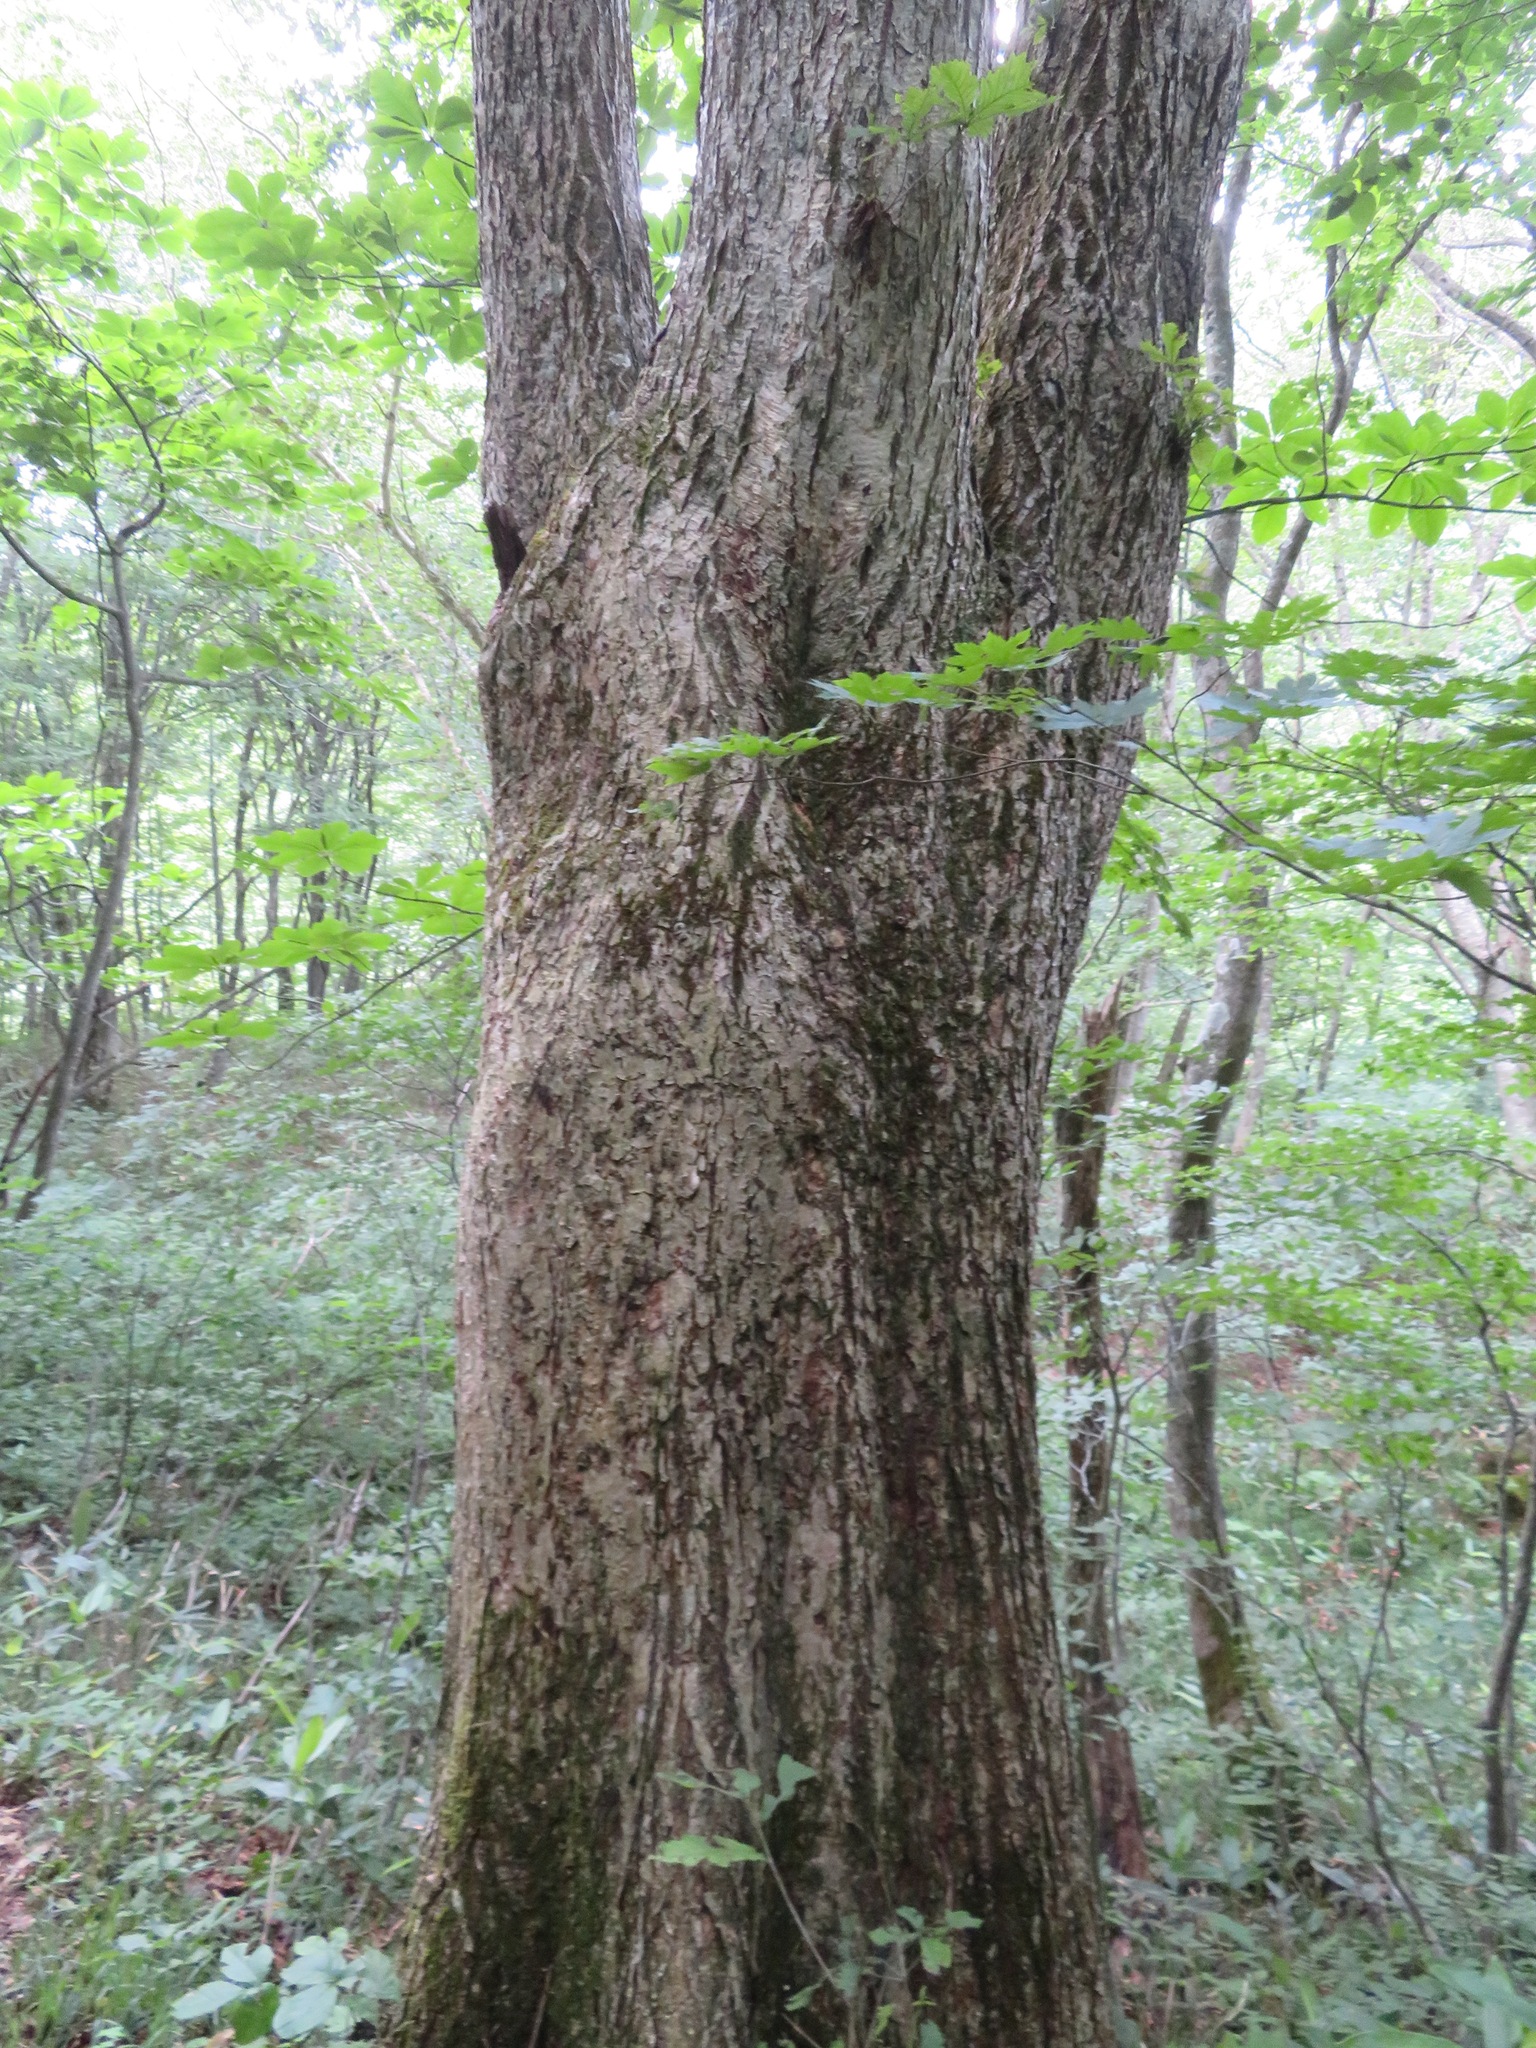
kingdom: Plantae
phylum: Tracheophyta
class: Magnoliopsida
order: Fagales
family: Fagaceae
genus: Quercus
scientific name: Quercus crispula
